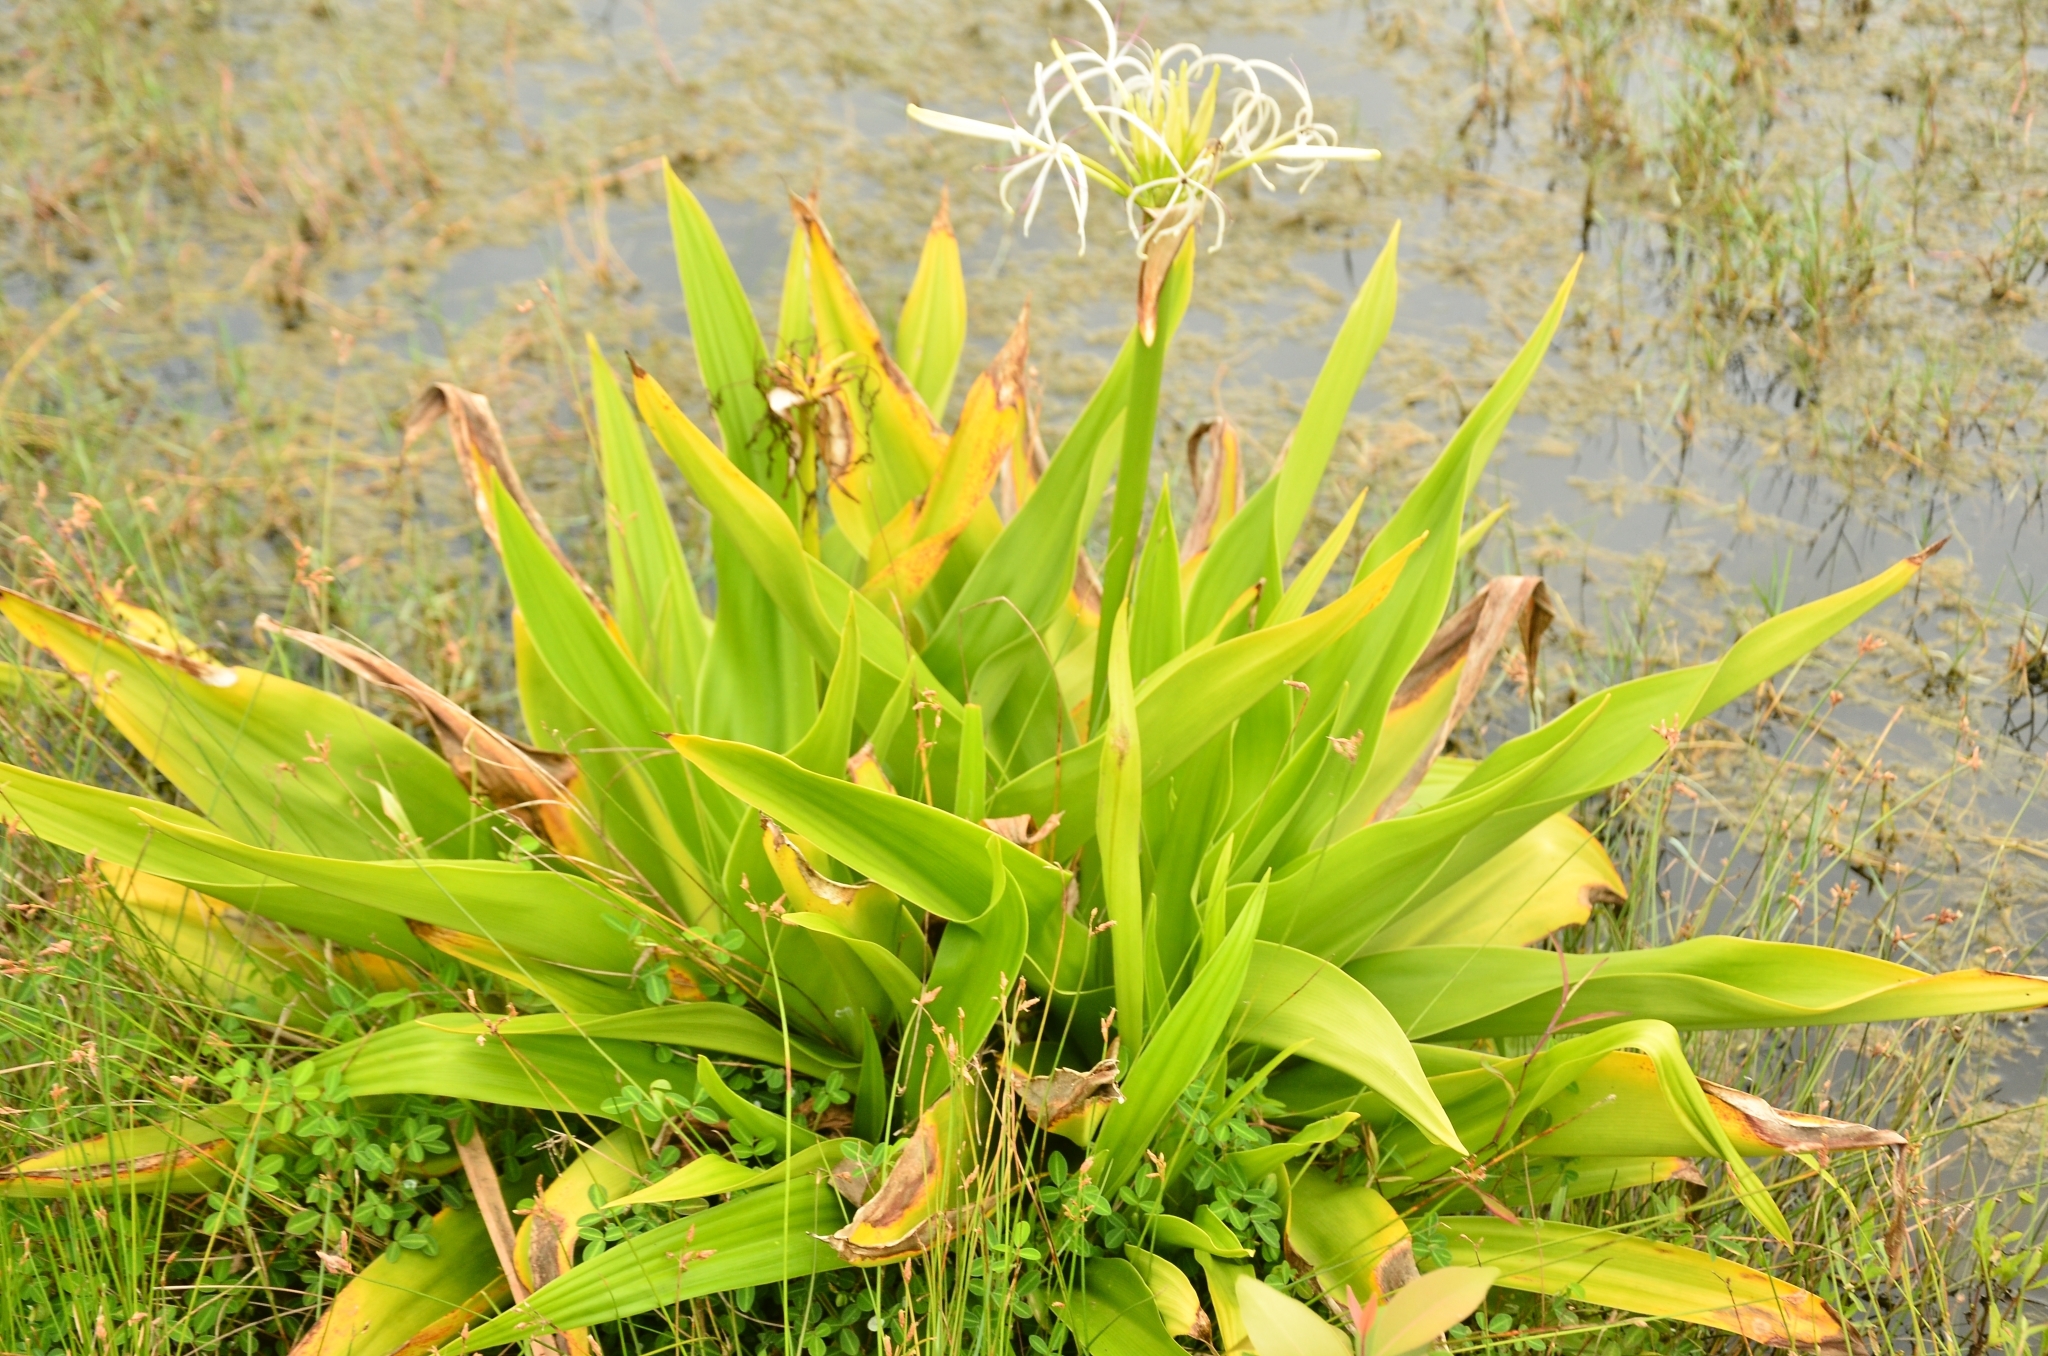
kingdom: Plantae
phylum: Tracheophyta
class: Liliopsida
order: Asparagales
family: Amaryllidaceae
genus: Crinum
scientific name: Crinum asiaticum
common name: Poisonbulb
